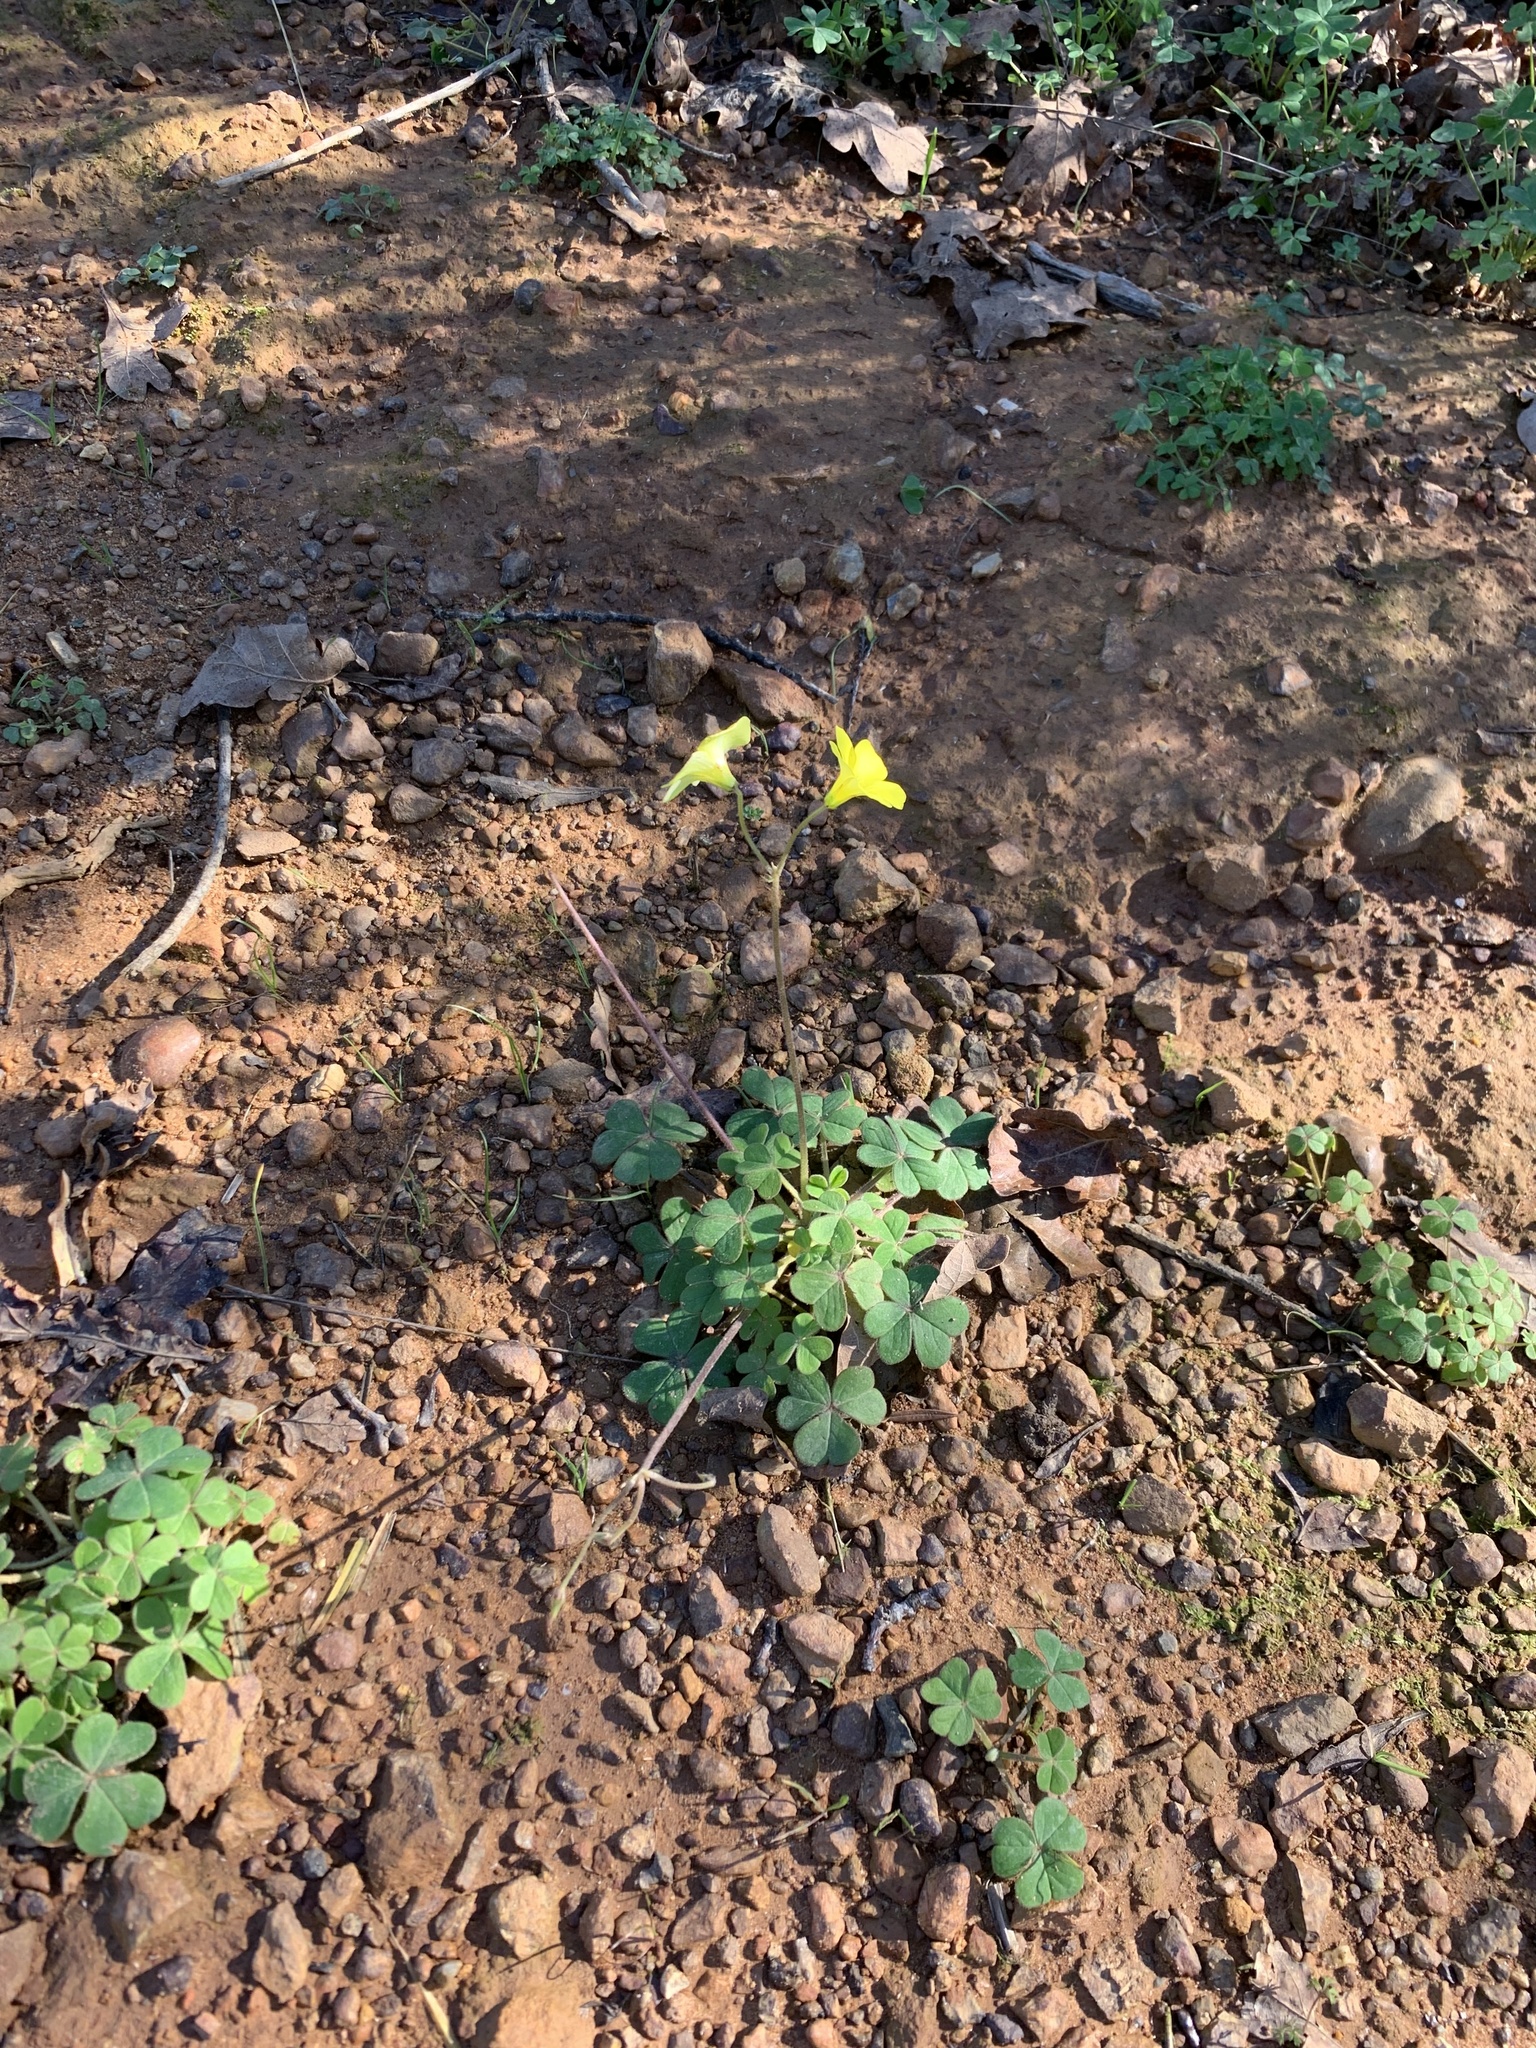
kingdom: Plantae
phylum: Tracheophyta
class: Magnoliopsida
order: Oxalidales
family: Oxalidaceae
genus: Oxalis
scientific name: Oxalis pes-caprae
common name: Bermuda-buttercup
